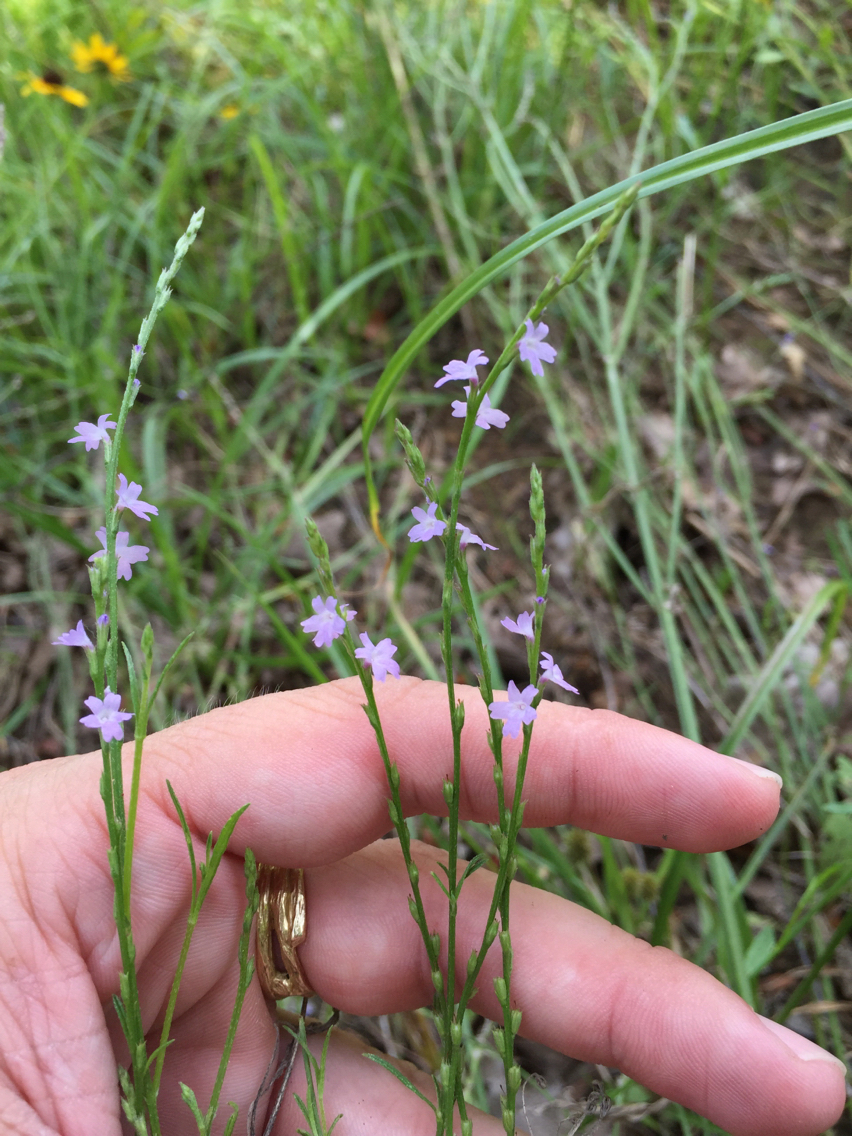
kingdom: Plantae
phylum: Tracheophyta
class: Magnoliopsida
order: Lamiales
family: Verbenaceae
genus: Verbena
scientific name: Verbena halei
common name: Texas vervain
